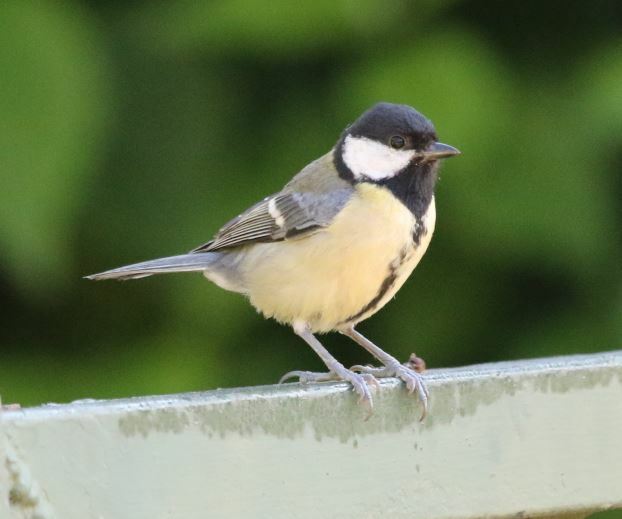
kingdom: Animalia
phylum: Chordata
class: Aves
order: Passeriformes
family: Paridae
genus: Parus
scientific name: Parus major
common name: Great tit
